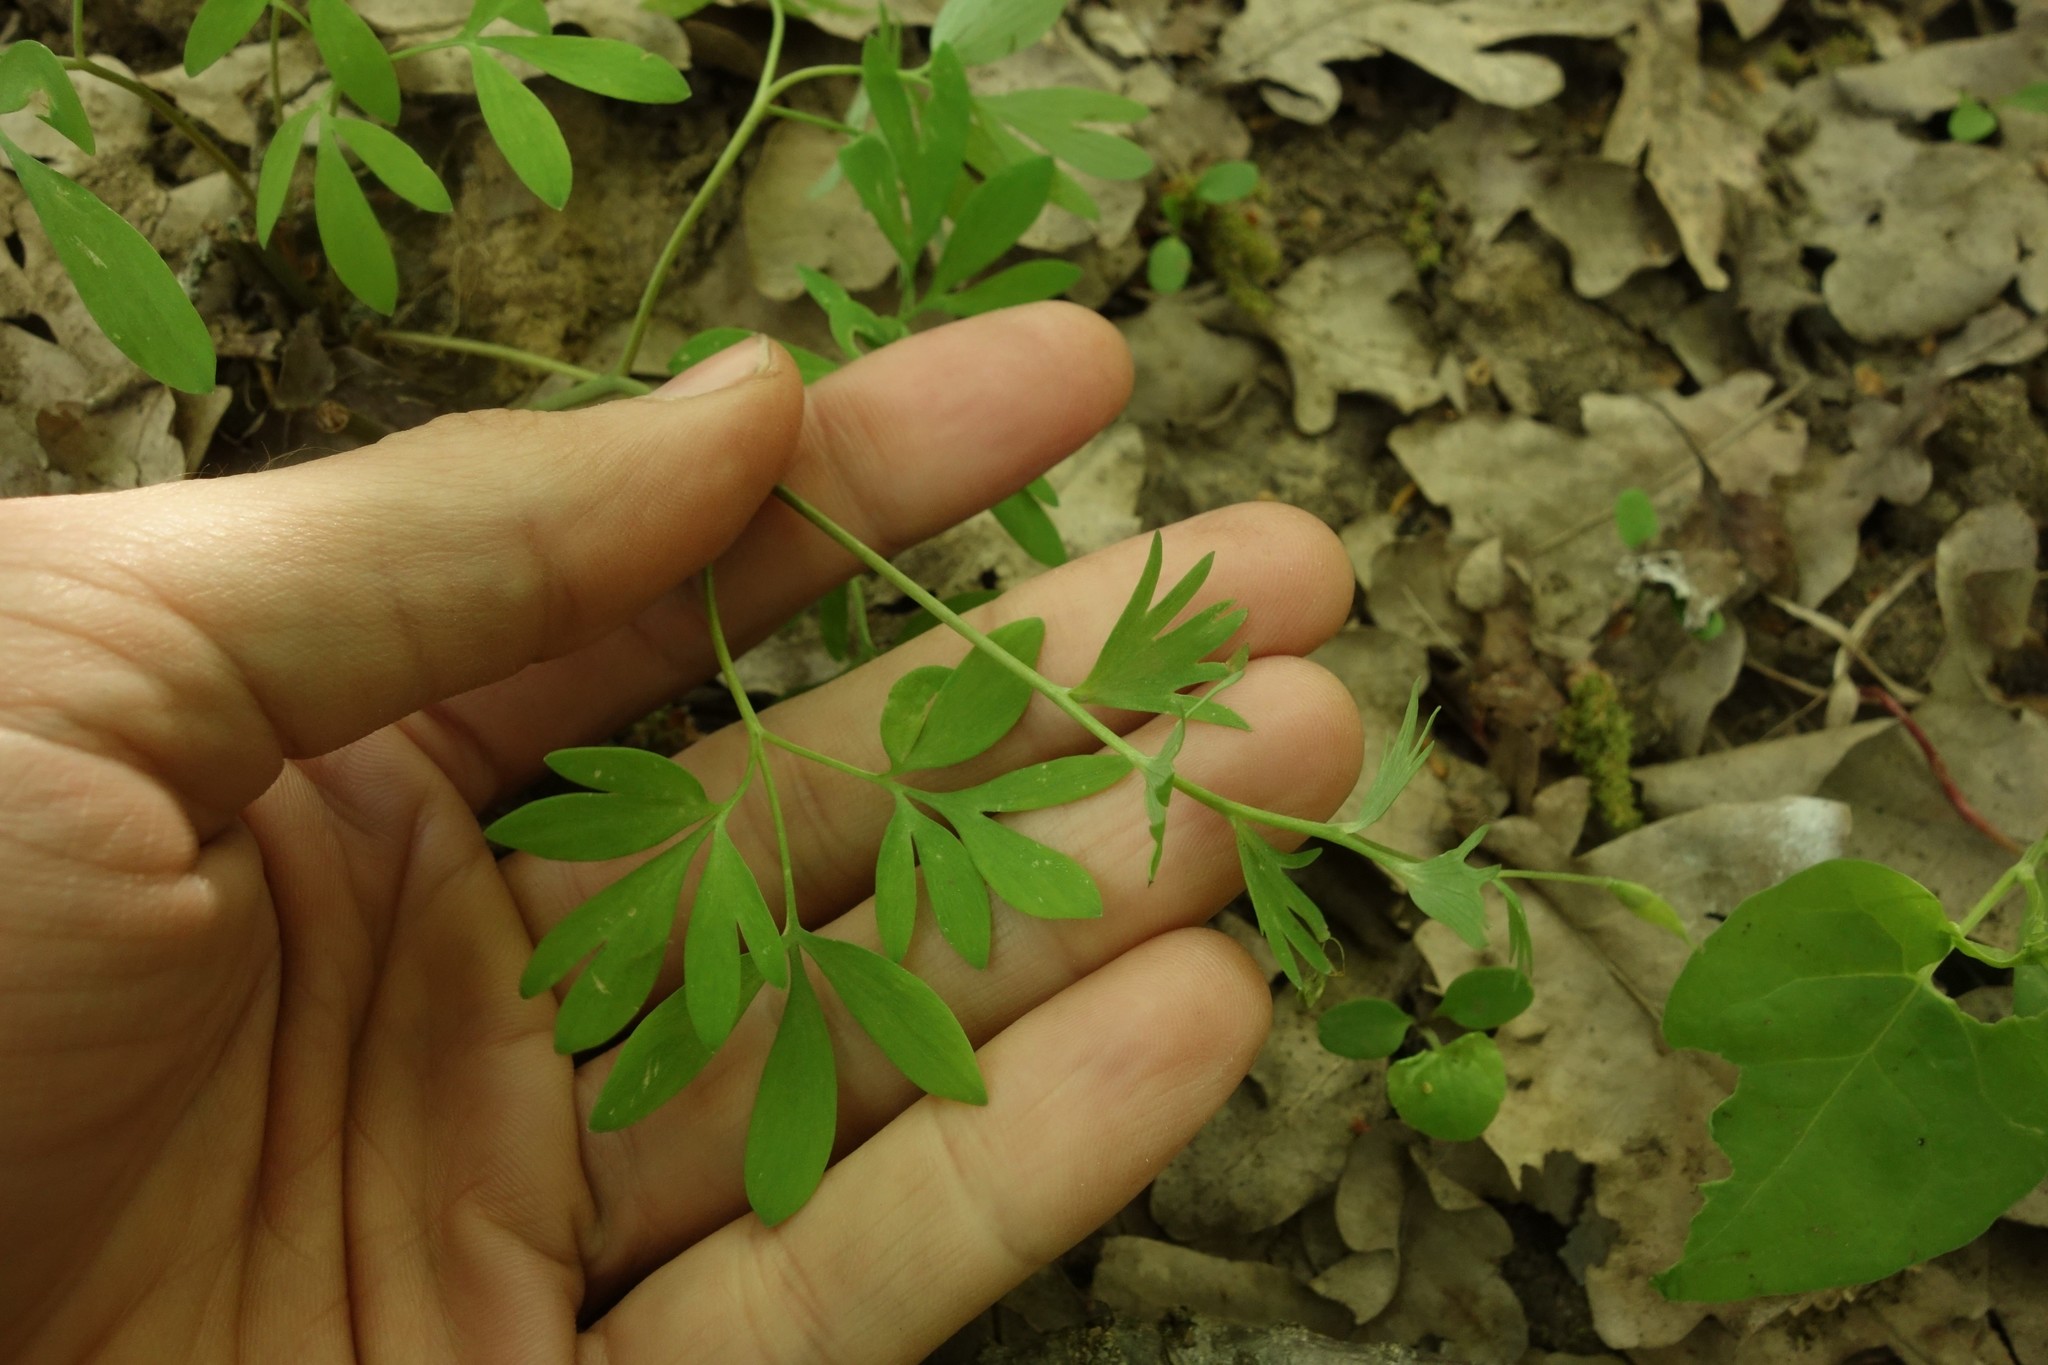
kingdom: Plantae
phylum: Tracheophyta
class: Magnoliopsida
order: Ranunculales
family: Papaveraceae
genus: Corydalis
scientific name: Corydalis solida
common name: Bird-in-a-bush
